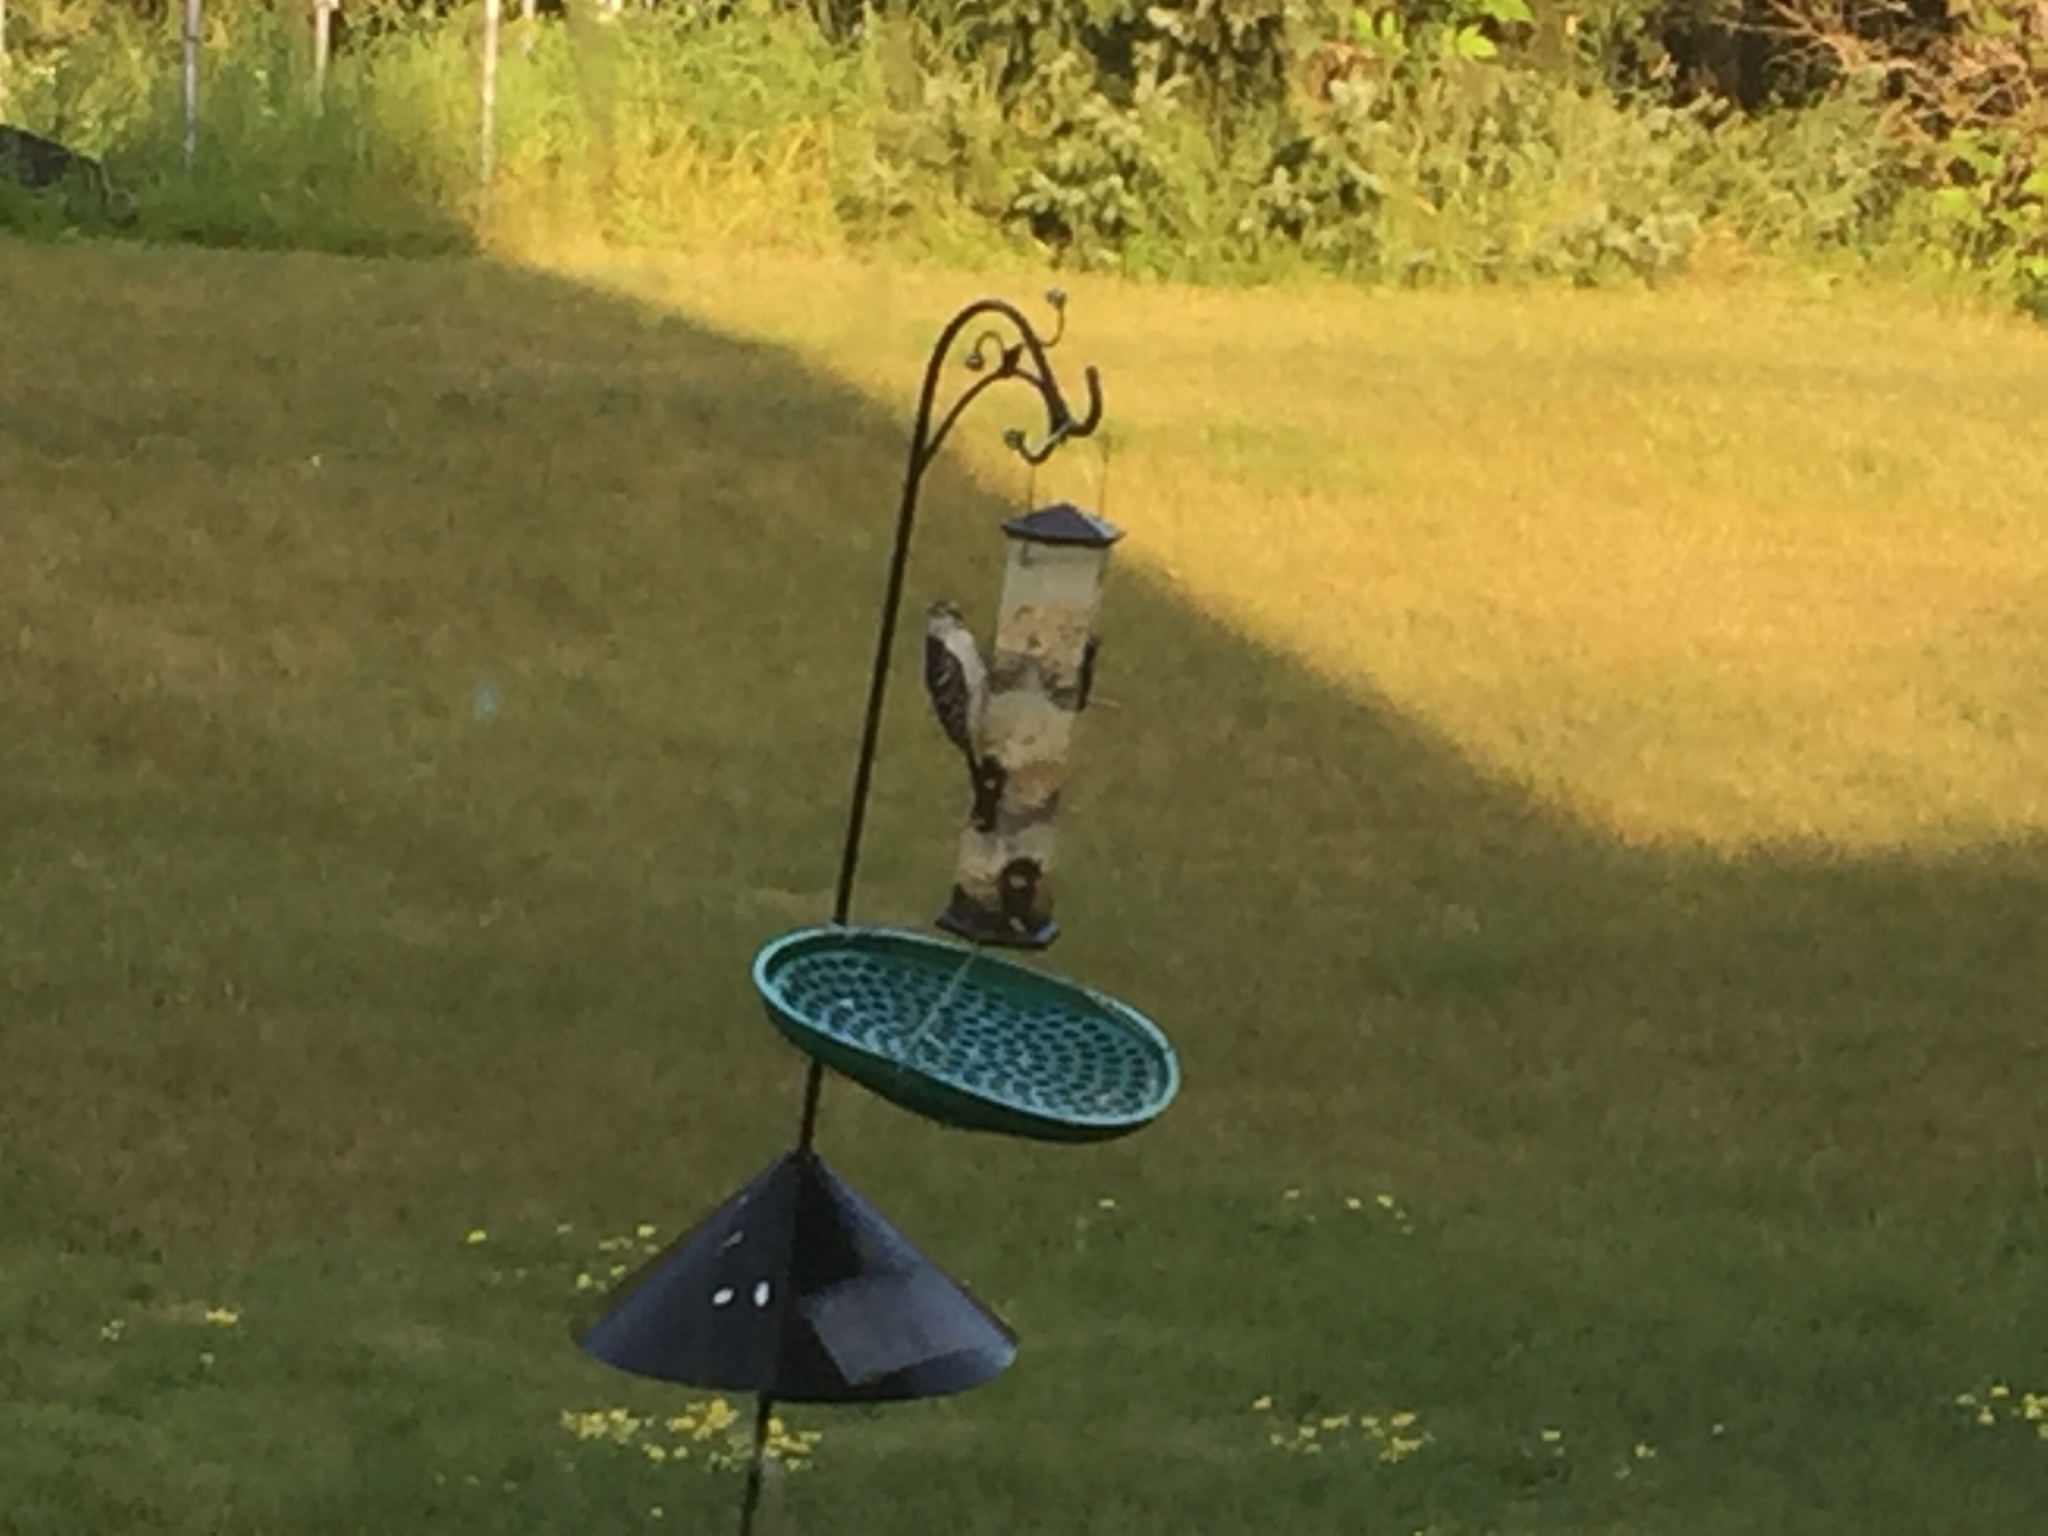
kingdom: Animalia
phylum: Chordata
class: Aves
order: Piciformes
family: Picidae
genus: Dryobates
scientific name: Dryobates pubescens
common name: Downy woodpecker
